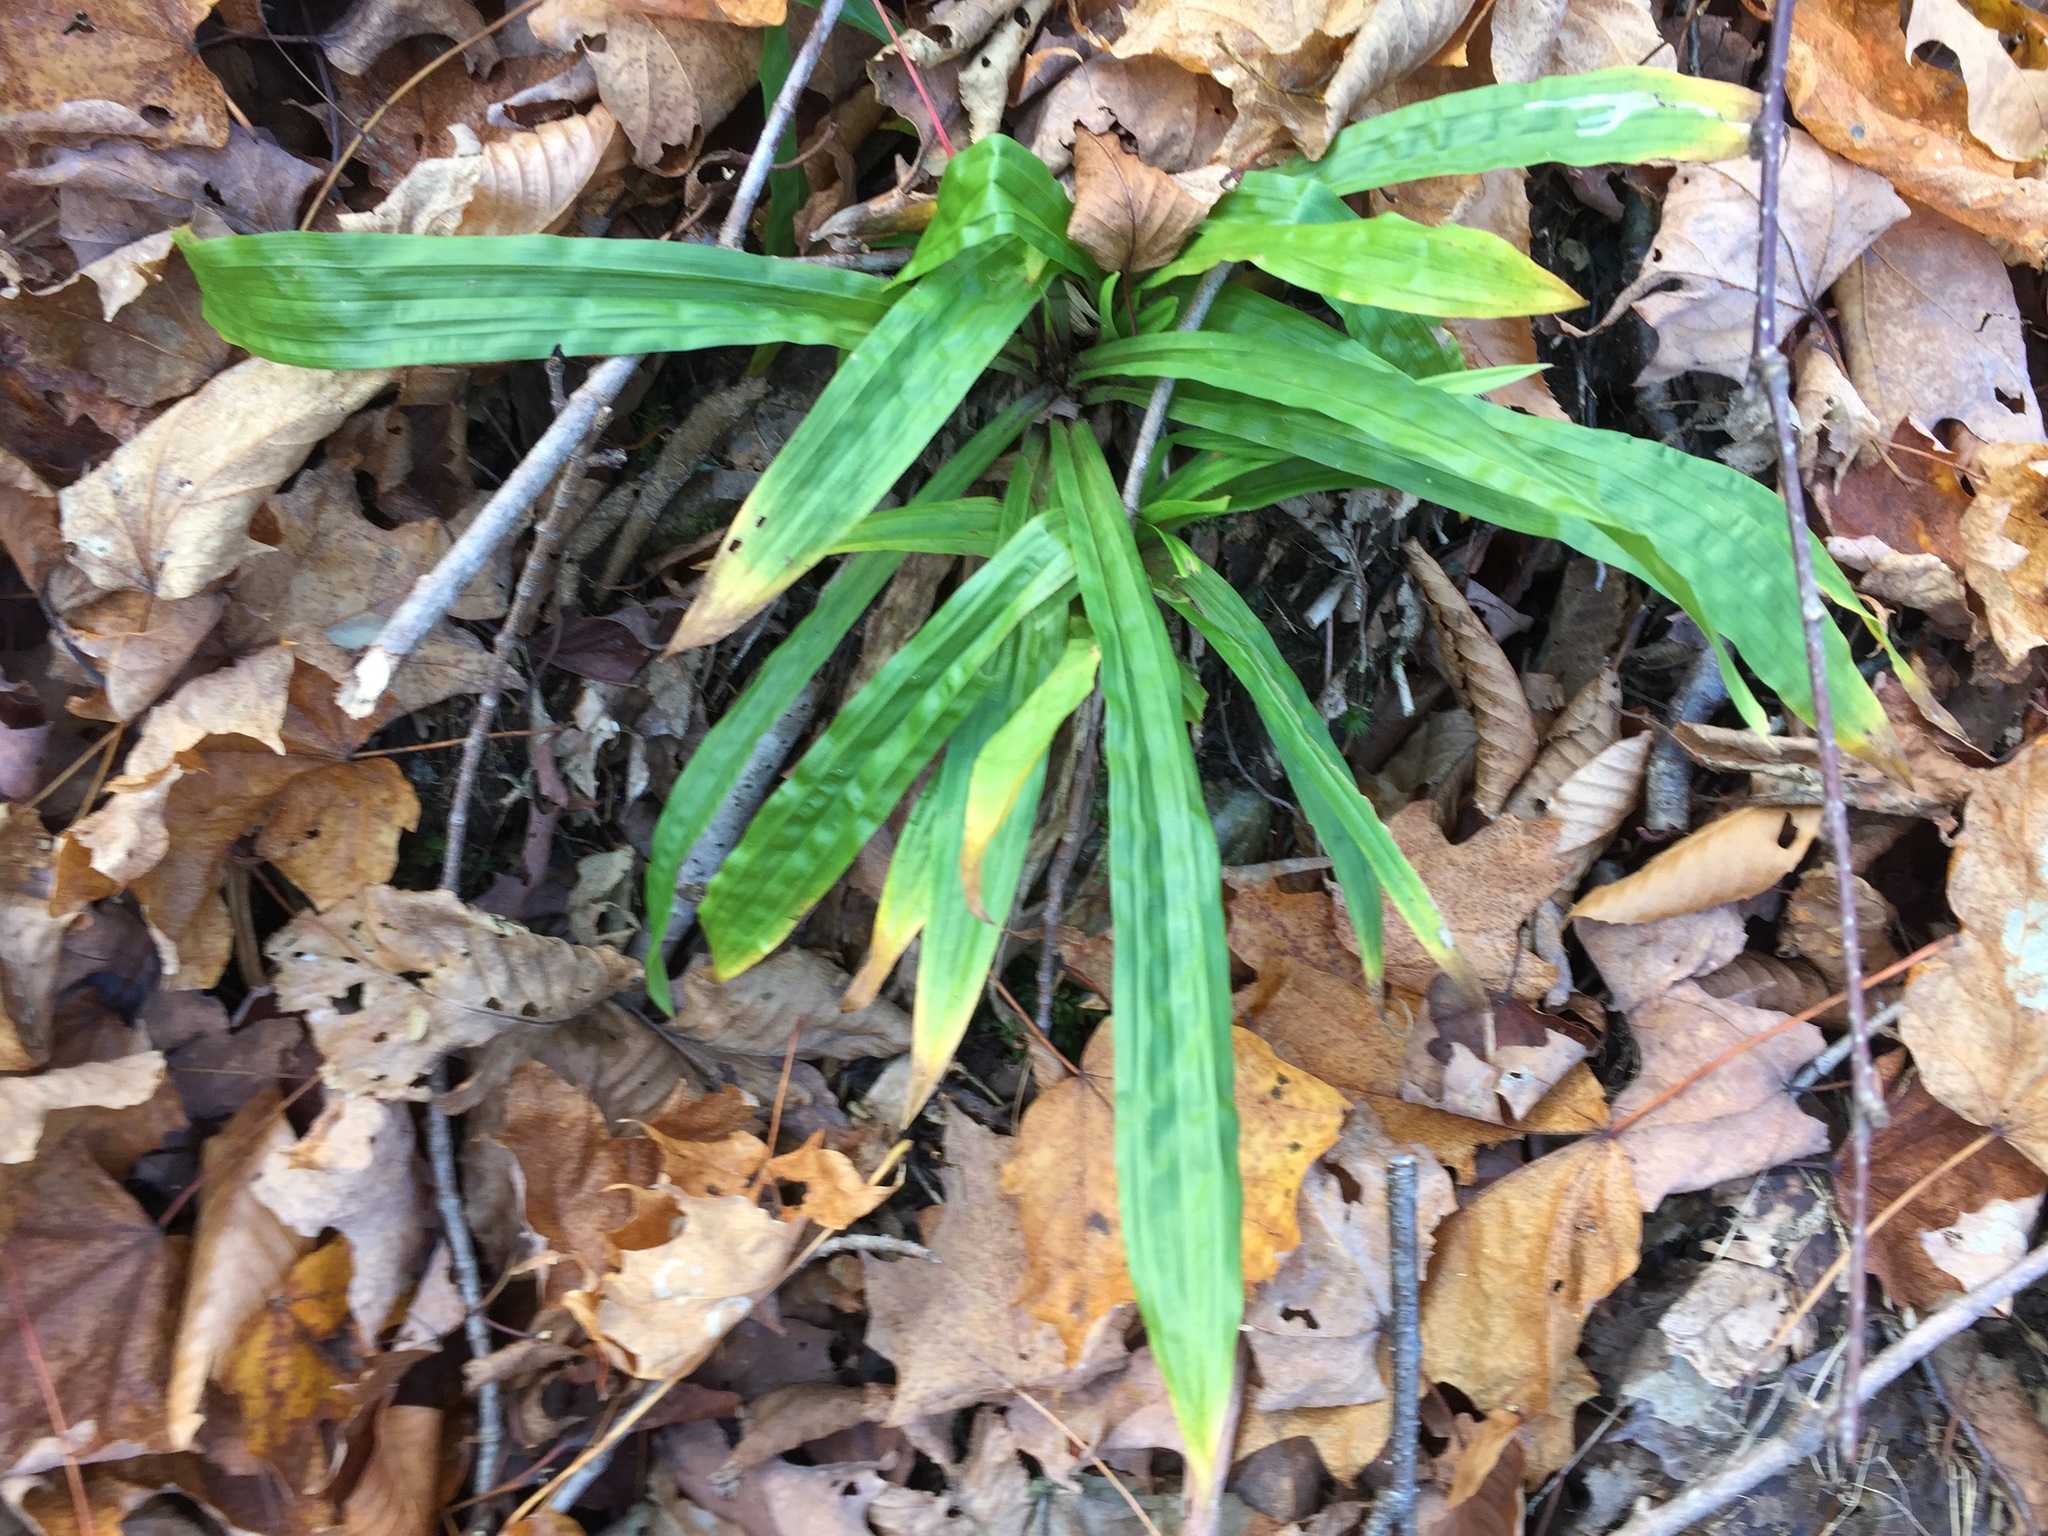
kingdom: Plantae
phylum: Tracheophyta
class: Liliopsida
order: Poales
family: Cyperaceae
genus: Carex
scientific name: Carex plantaginea
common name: Plantain-leaved sedge
